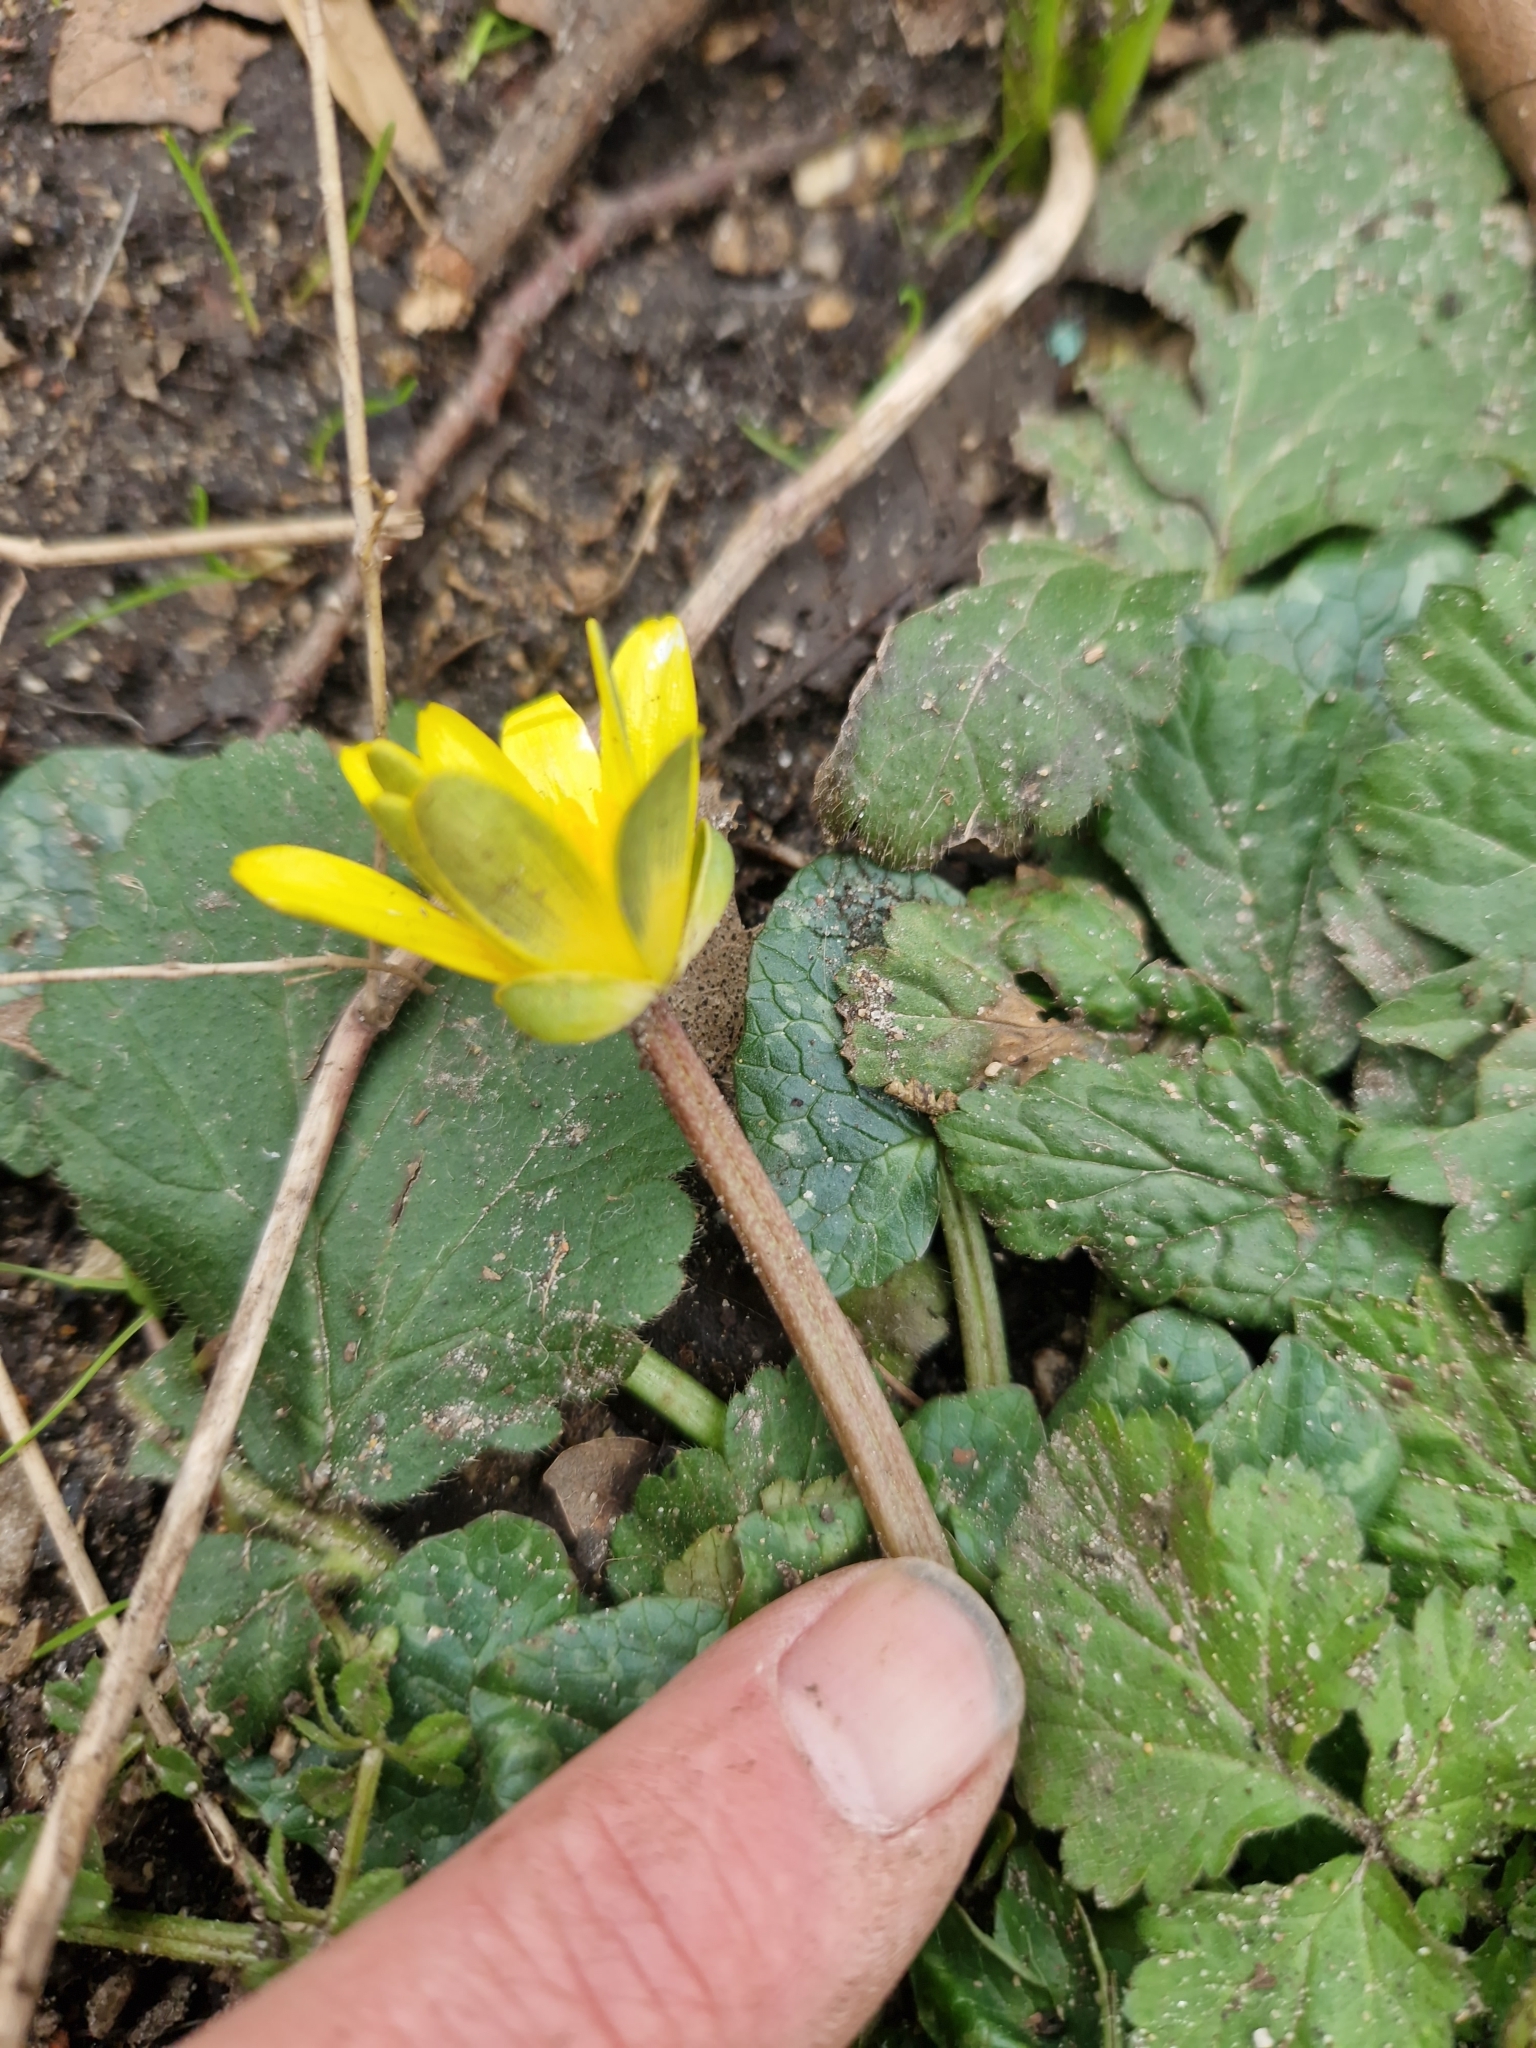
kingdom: Plantae
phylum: Tracheophyta
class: Magnoliopsida
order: Ranunculales
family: Ranunculaceae
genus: Ficaria
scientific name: Ficaria verna
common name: Lesser celandine
